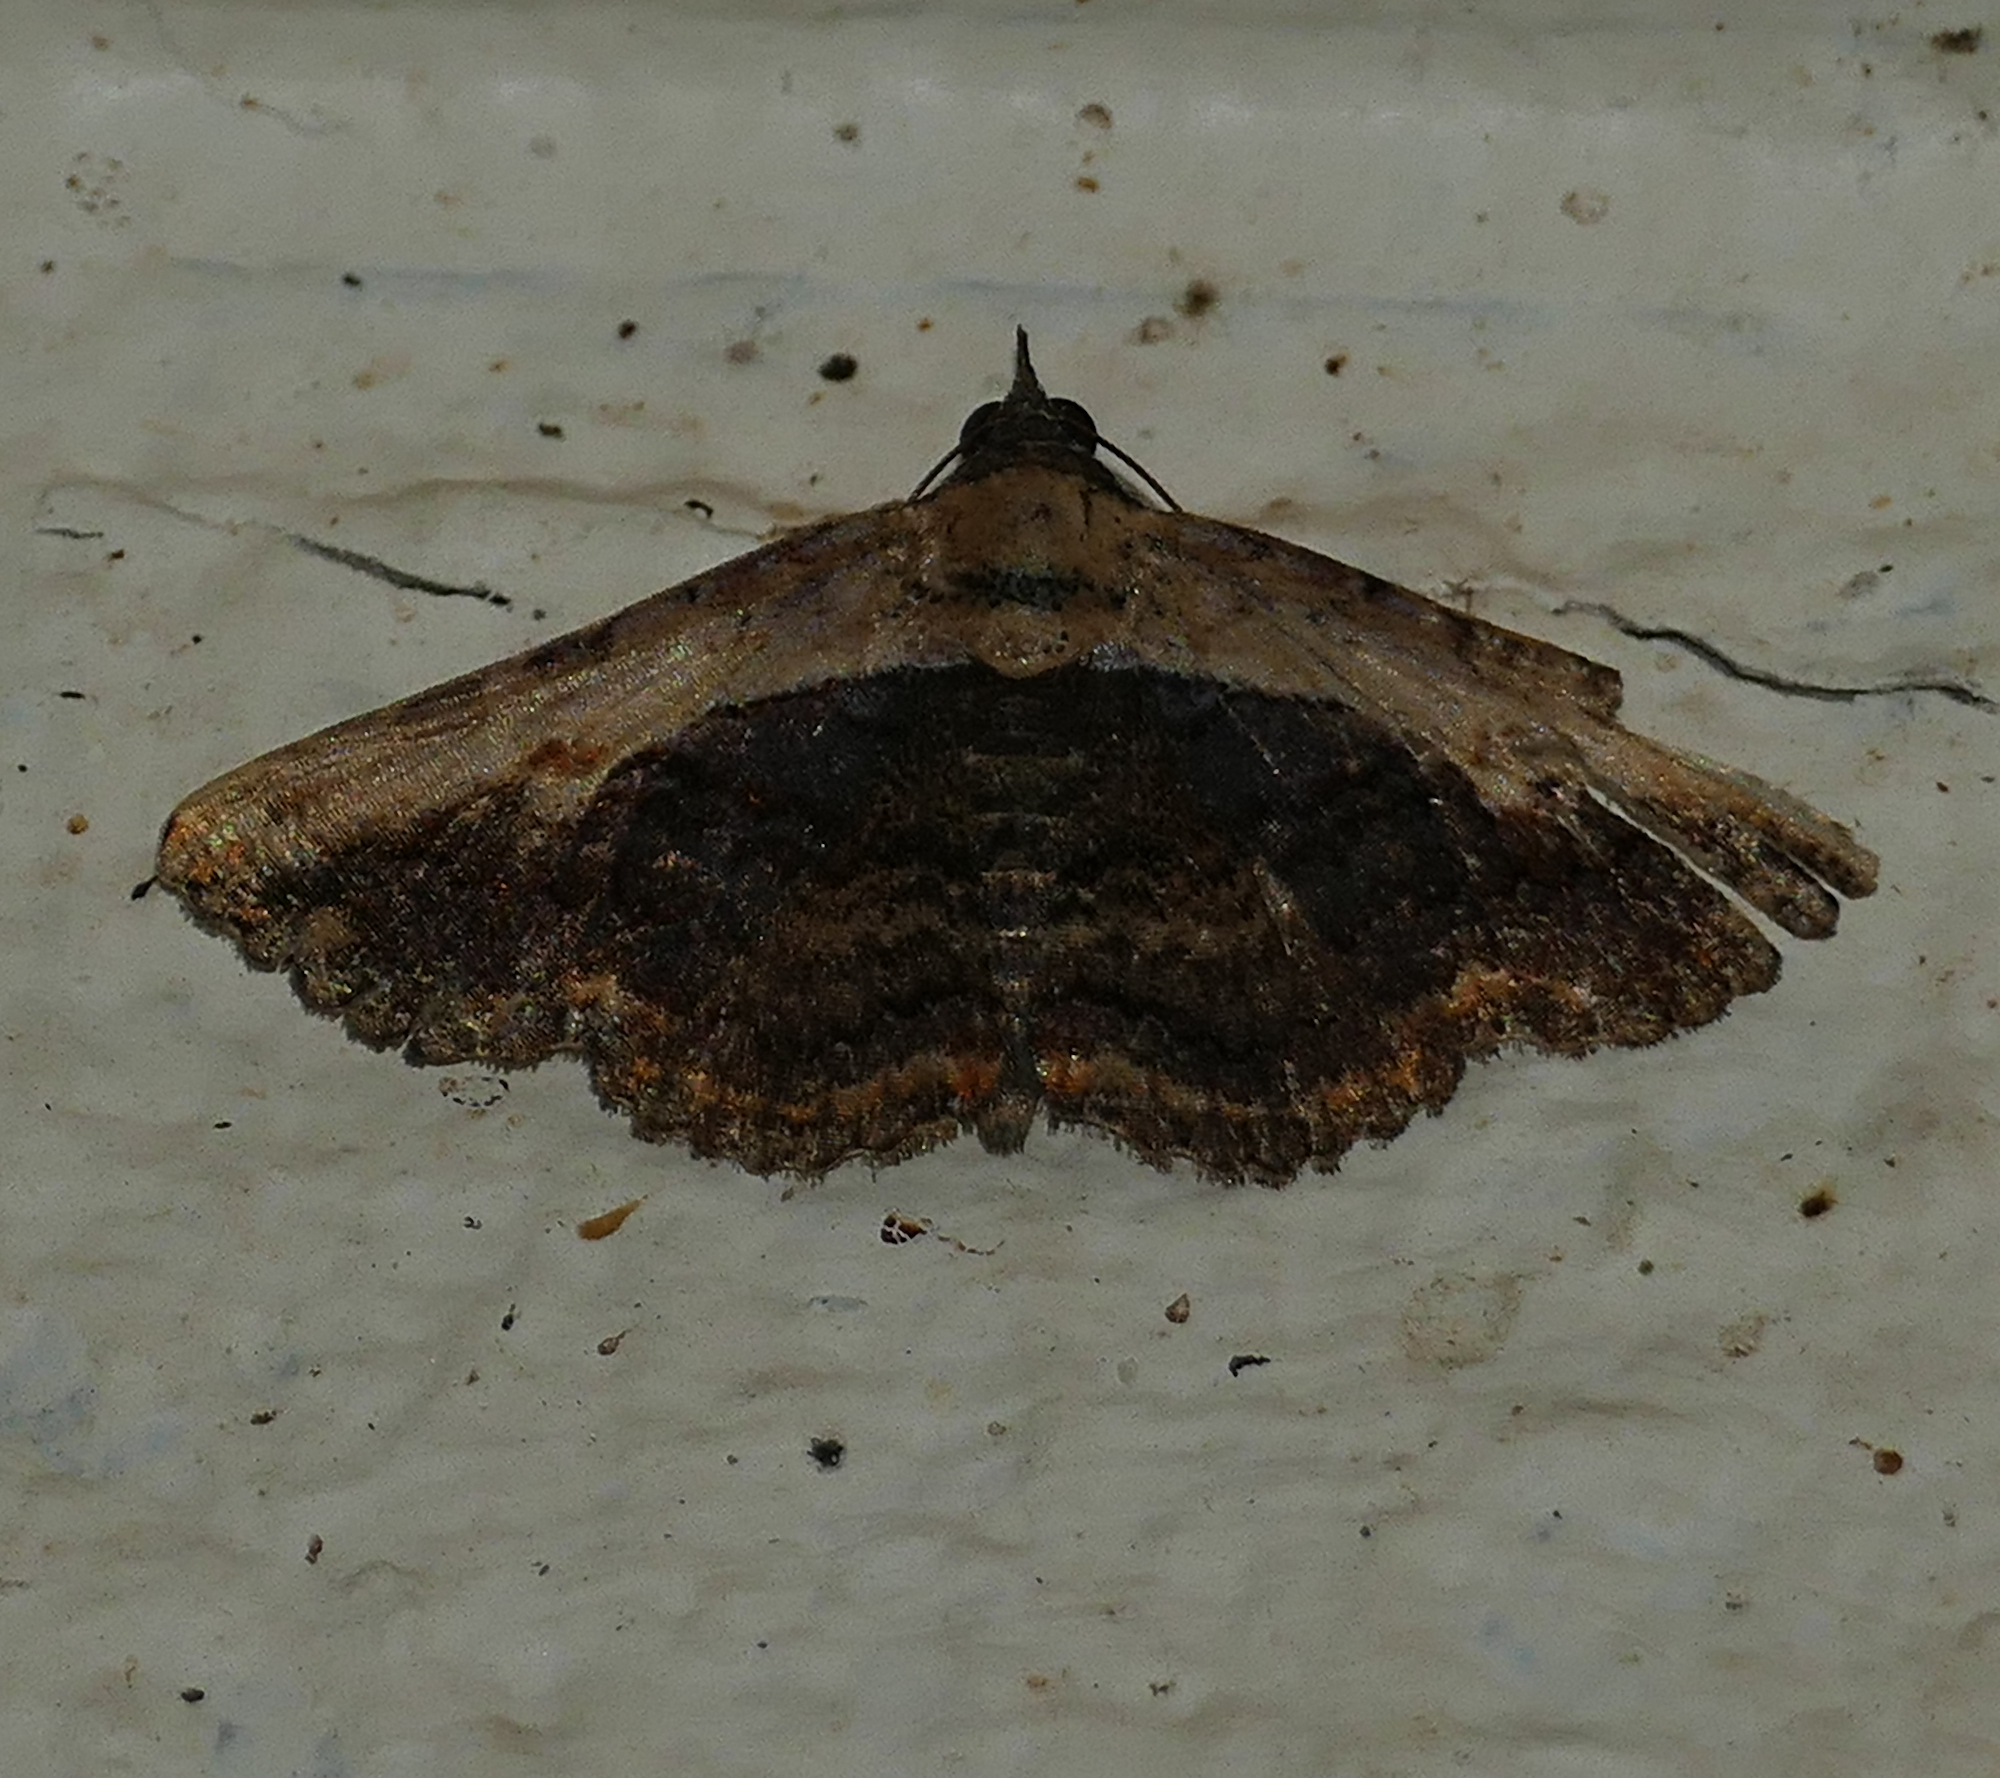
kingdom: Animalia
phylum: Arthropoda
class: Insecta
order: Lepidoptera
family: Erebidae
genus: Selenisa
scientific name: Selenisa sueroides
